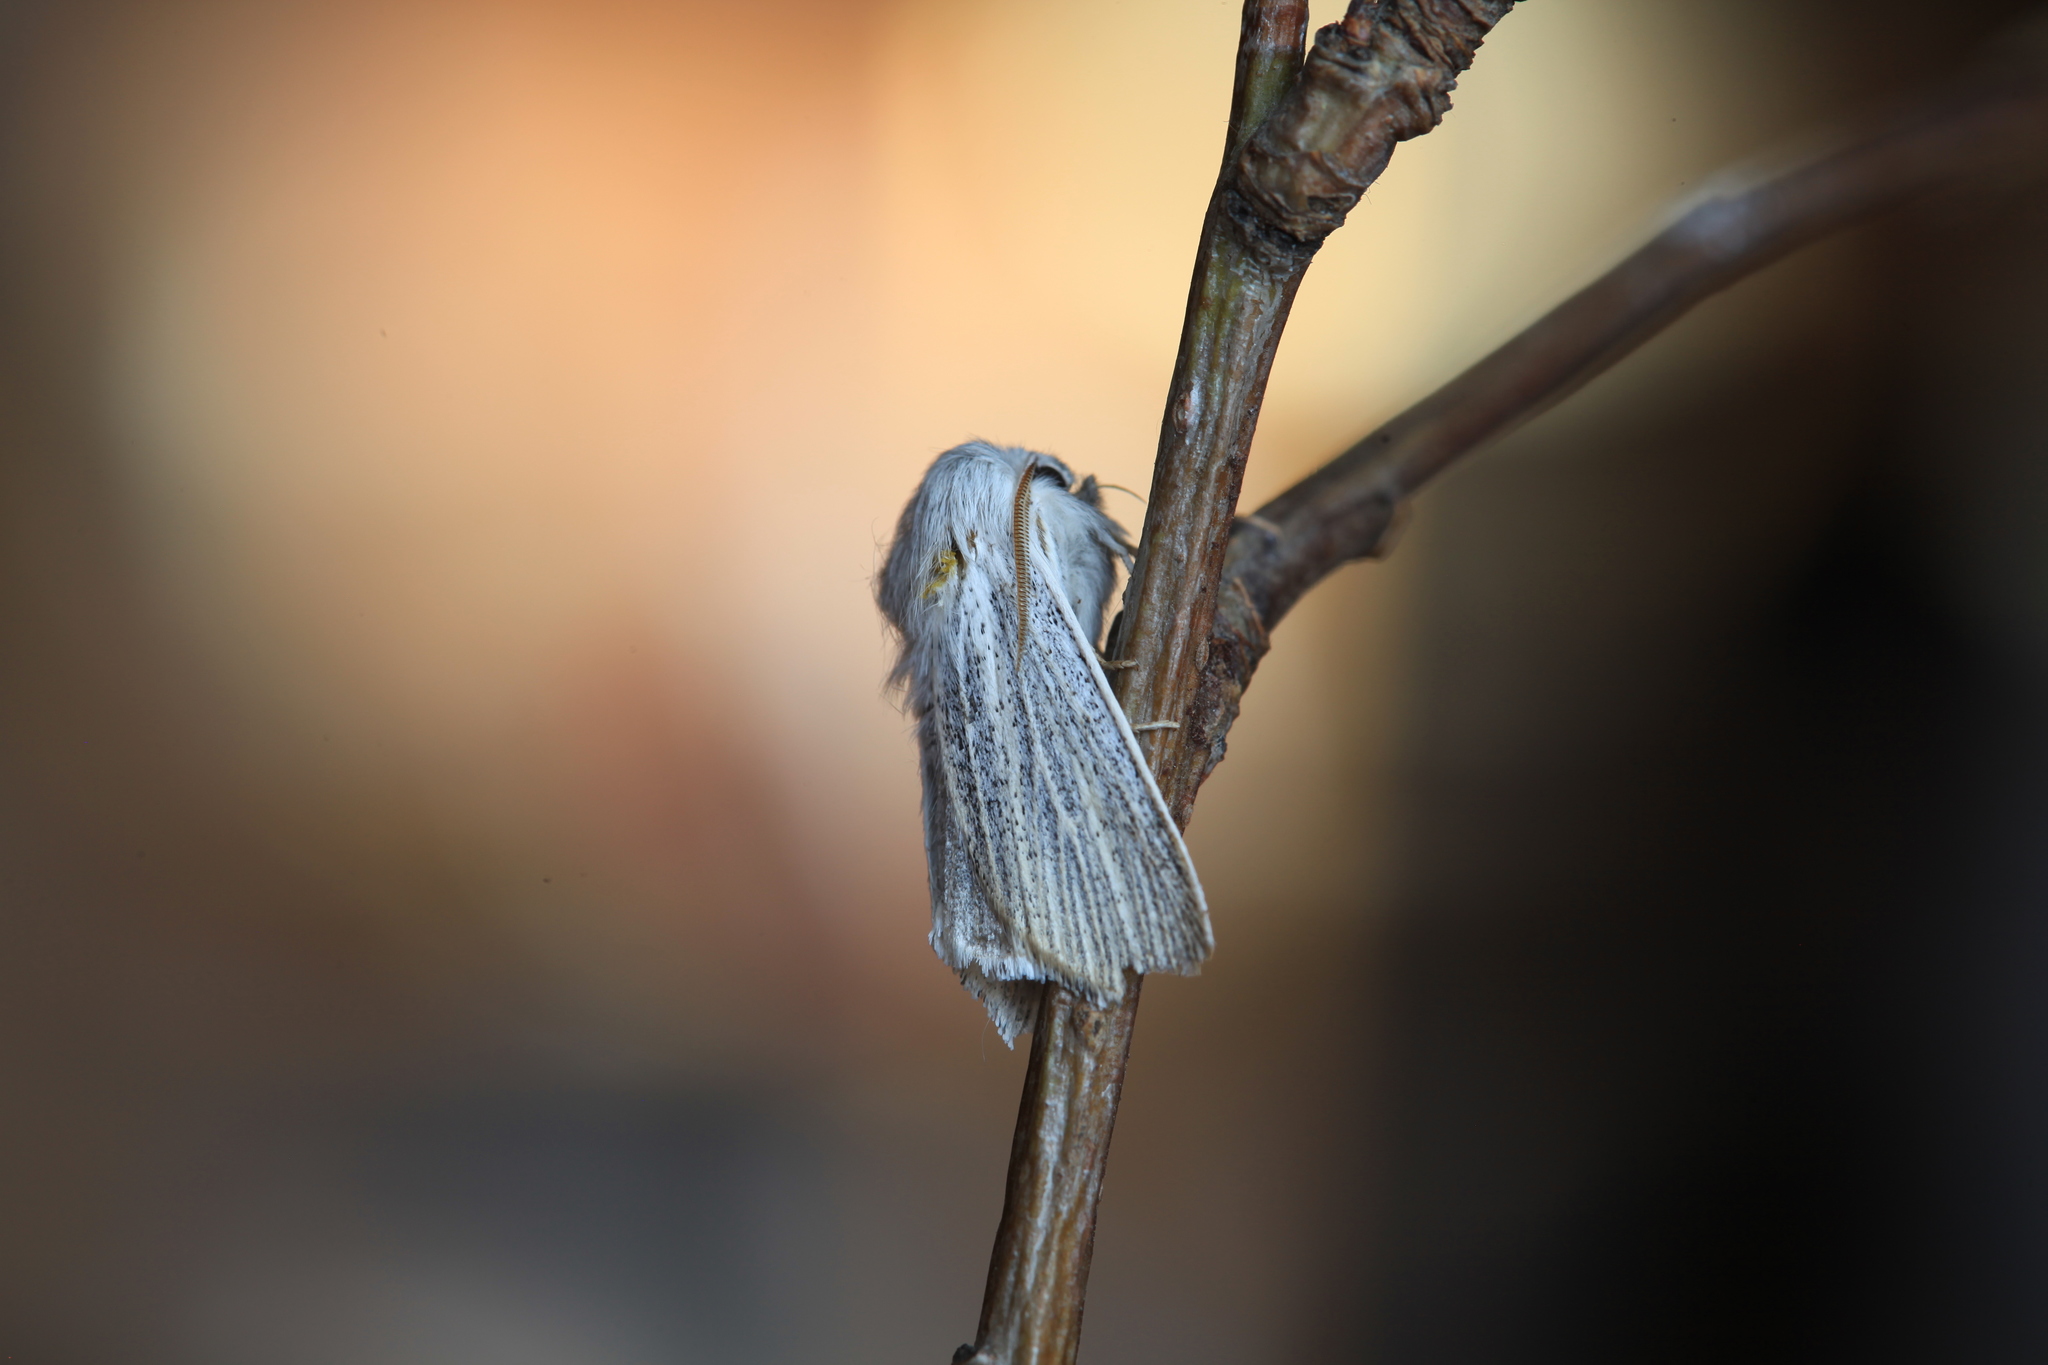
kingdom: Animalia
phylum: Arthropoda
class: Insecta
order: Lepidoptera
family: Noctuidae
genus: Acronicta
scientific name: Acronicta nervosa
